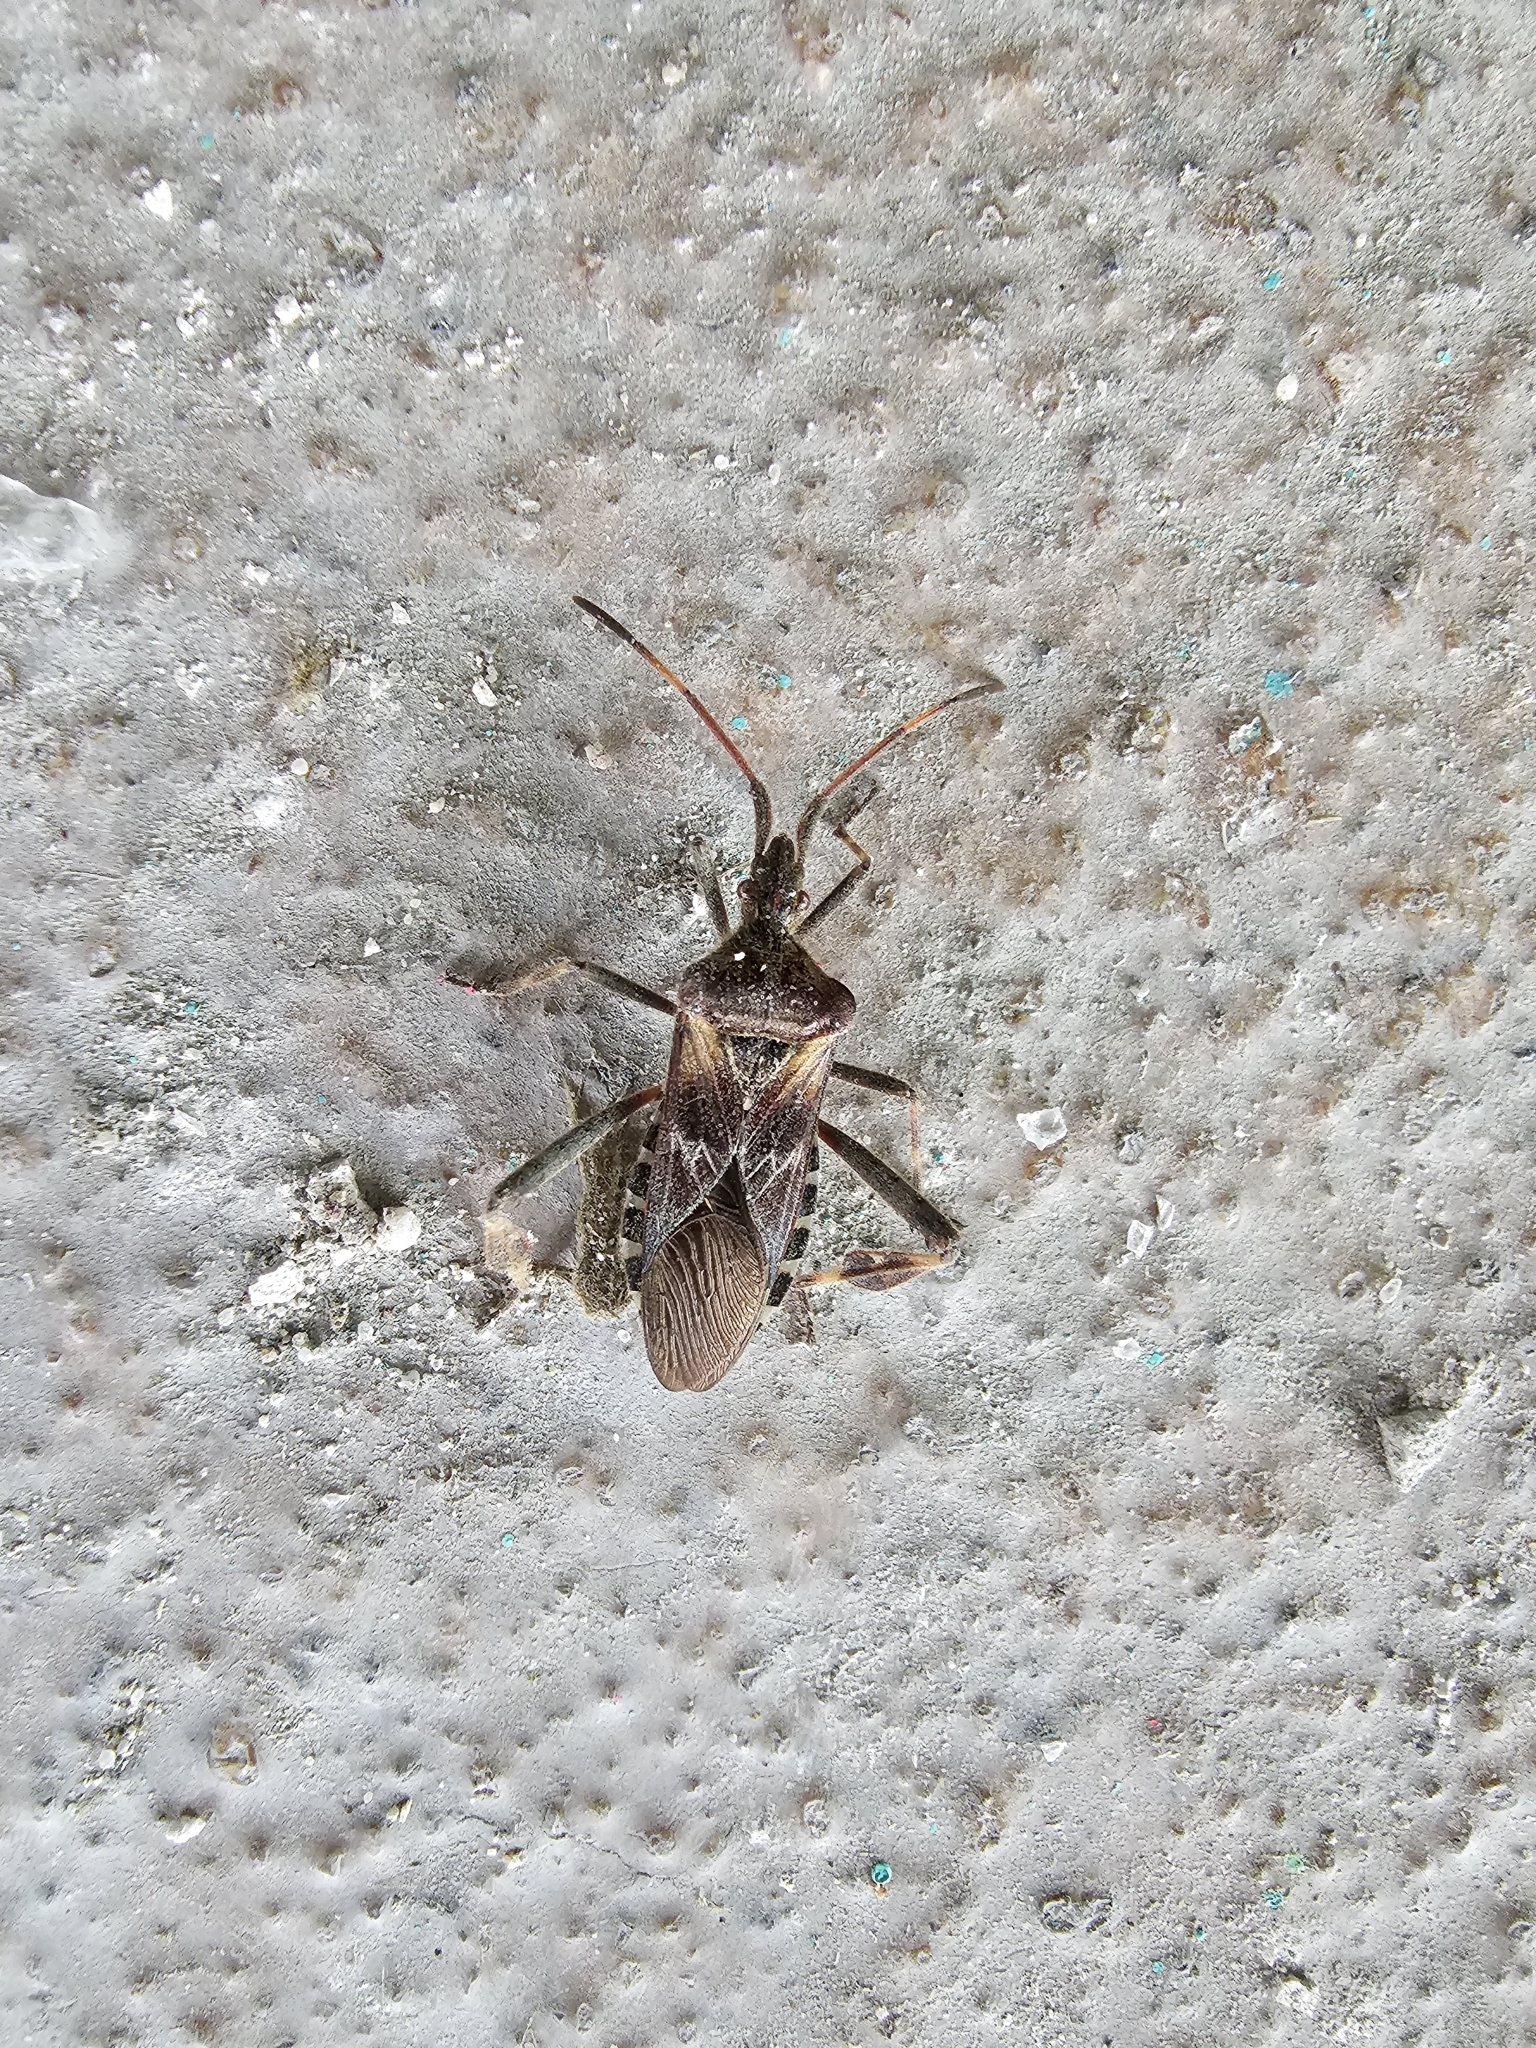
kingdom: Animalia
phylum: Arthropoda
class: Insecta
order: Hemiptera
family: Coreidae
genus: Leptoglossus
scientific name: Leptoglossus occidentalis
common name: Western conifer-seed bug
